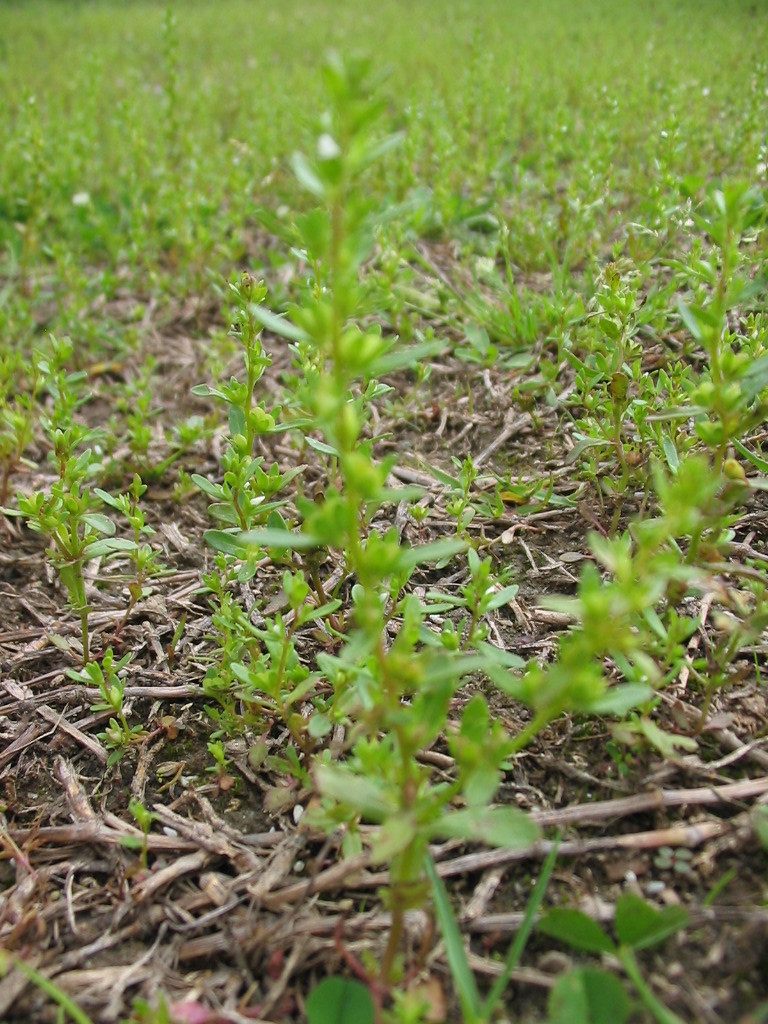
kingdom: Plantae
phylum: Tracheophyta
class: Magnoliopsida
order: Lamiales
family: Plantaginaceae
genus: Veronica
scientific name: Veronica peregrina
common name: Neckweed
